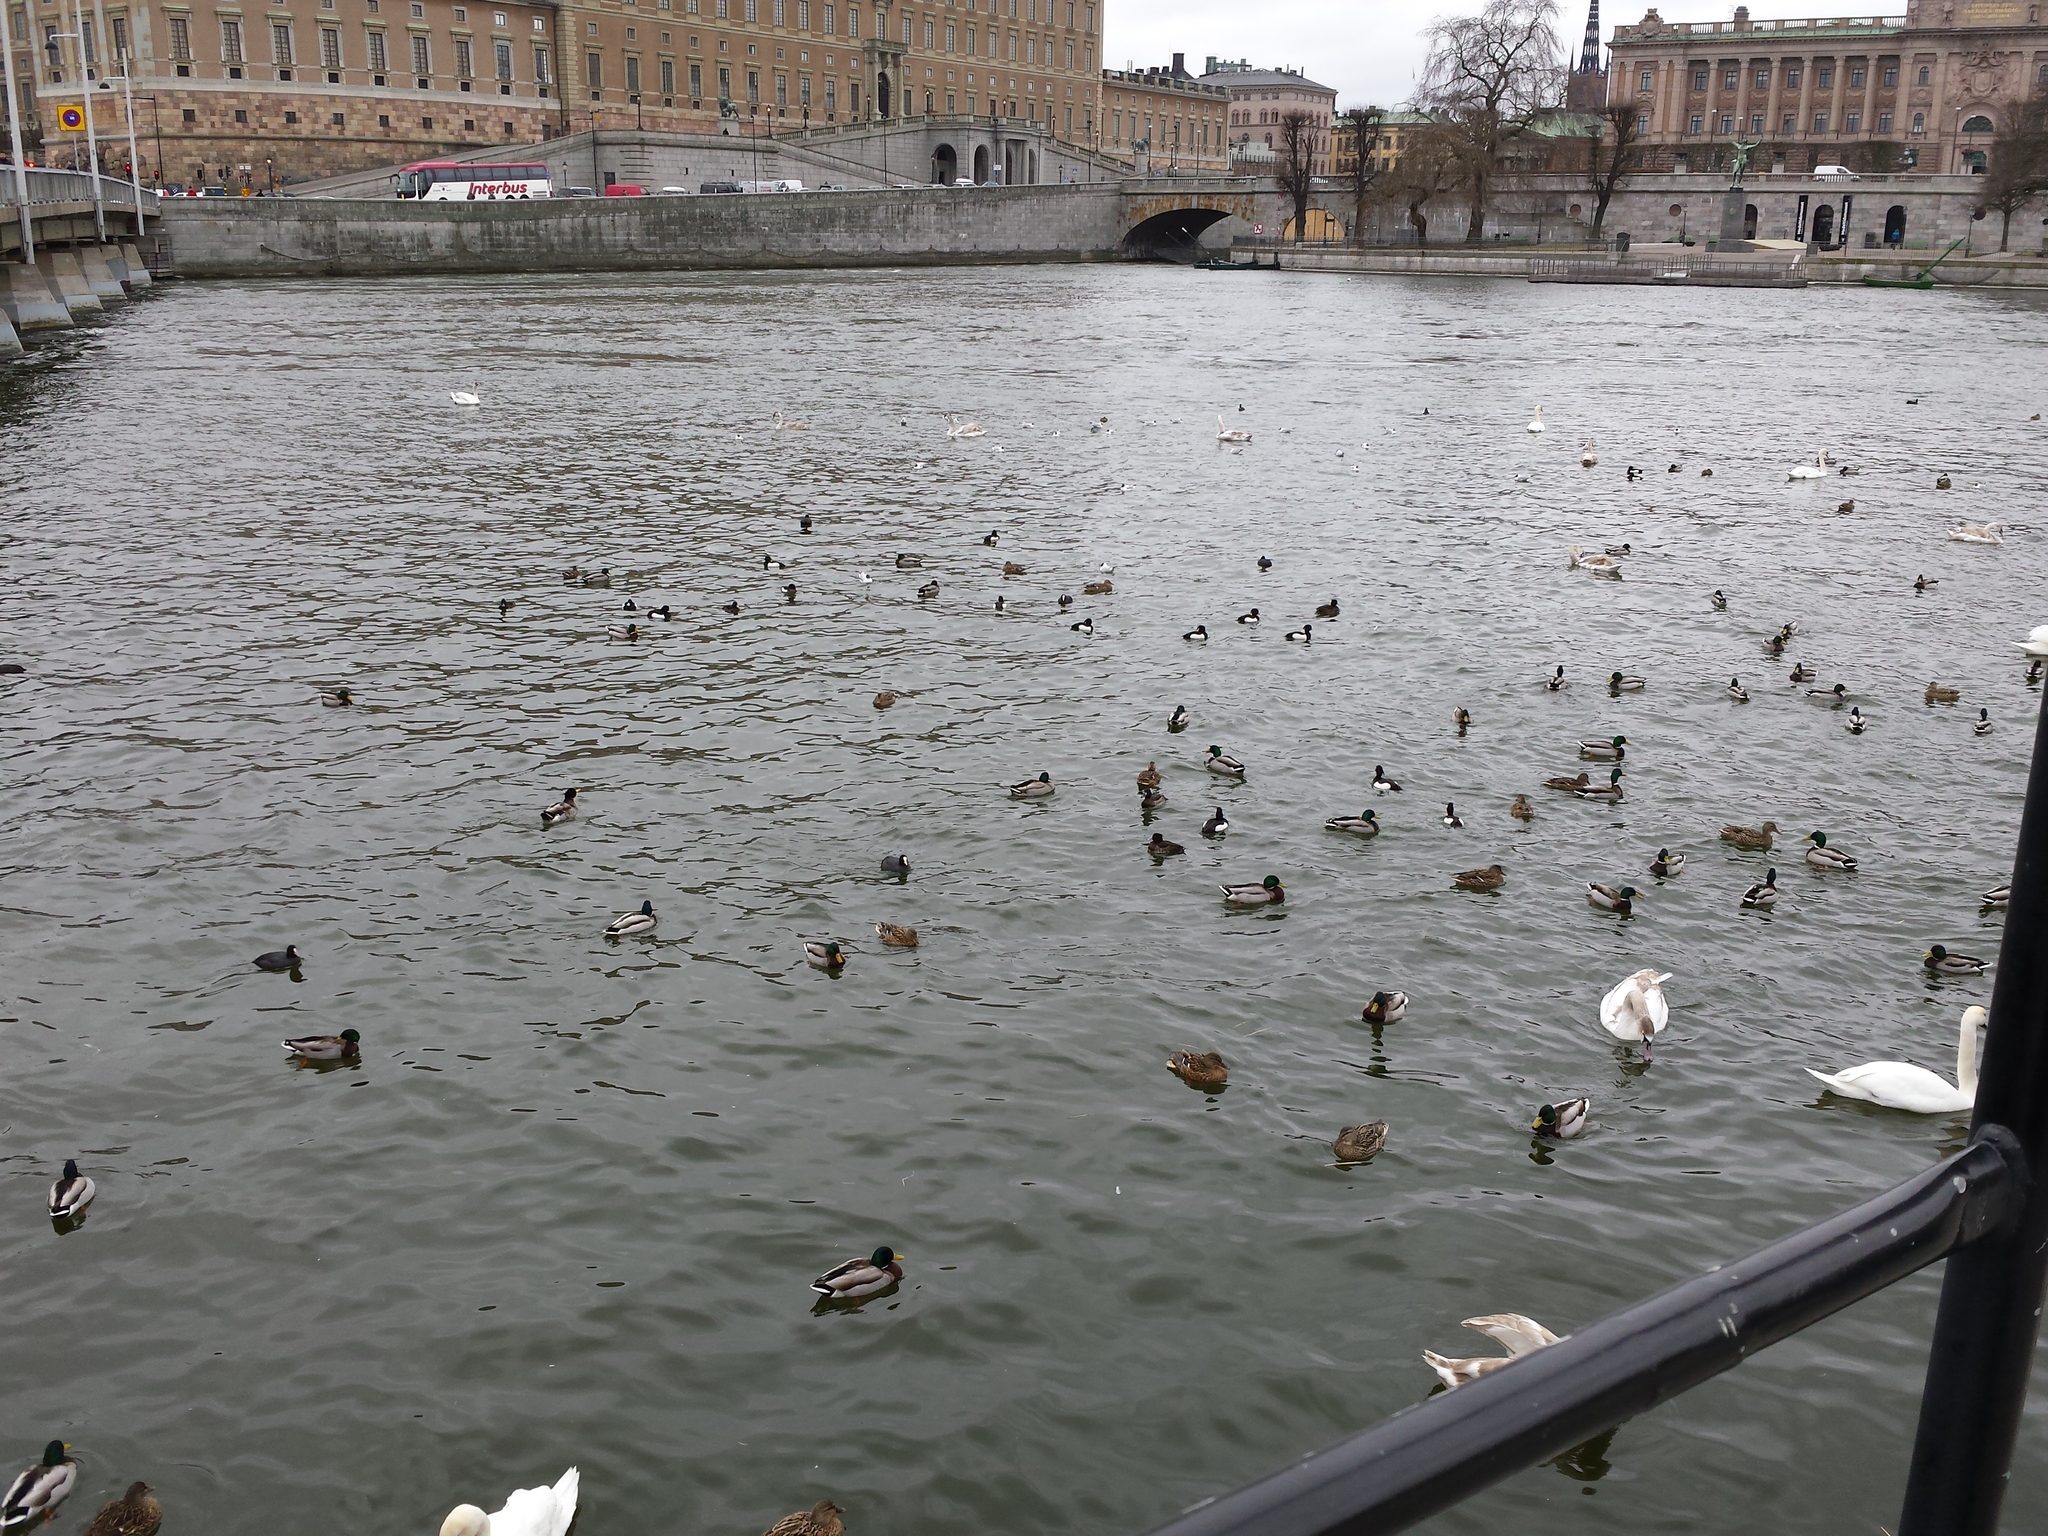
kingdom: Animalia
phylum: Chordata
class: Aves
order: Anseriformes
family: Anatidae
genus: Aythya
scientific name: Aythya fuligula
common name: Tufted duck
